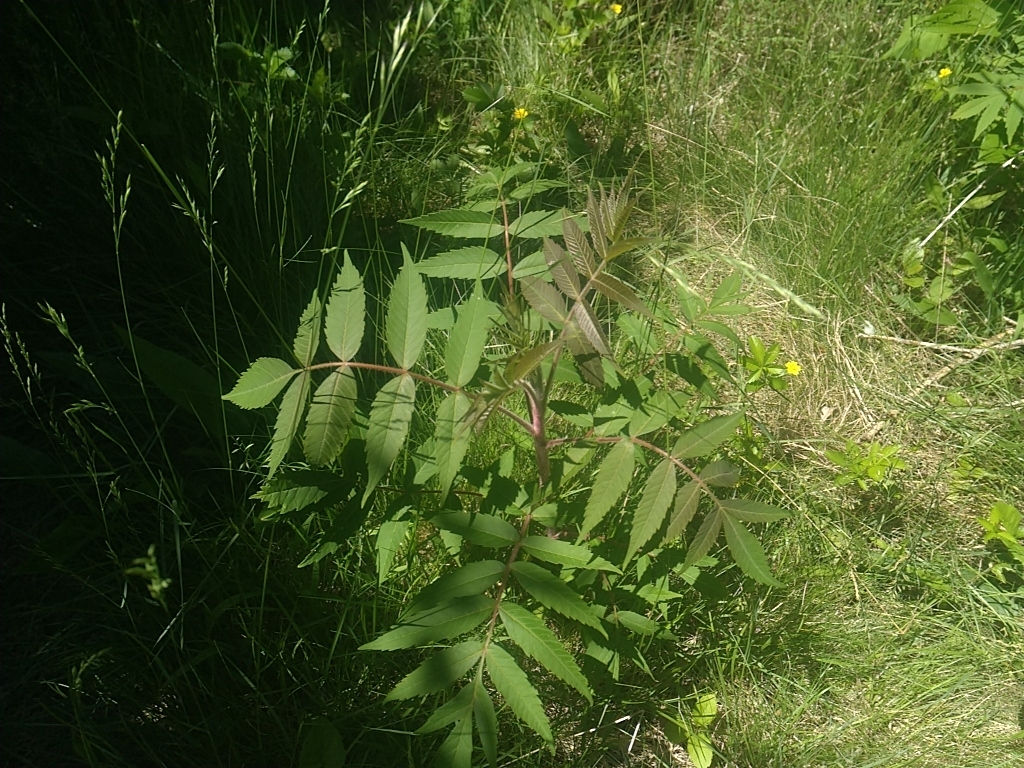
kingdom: Plantae
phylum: Tracheophyta
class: Magnoliopsida
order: Sapindales
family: Anacardiaceae
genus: Rhus
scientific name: Rhus typhina
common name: Staghorn sumac
